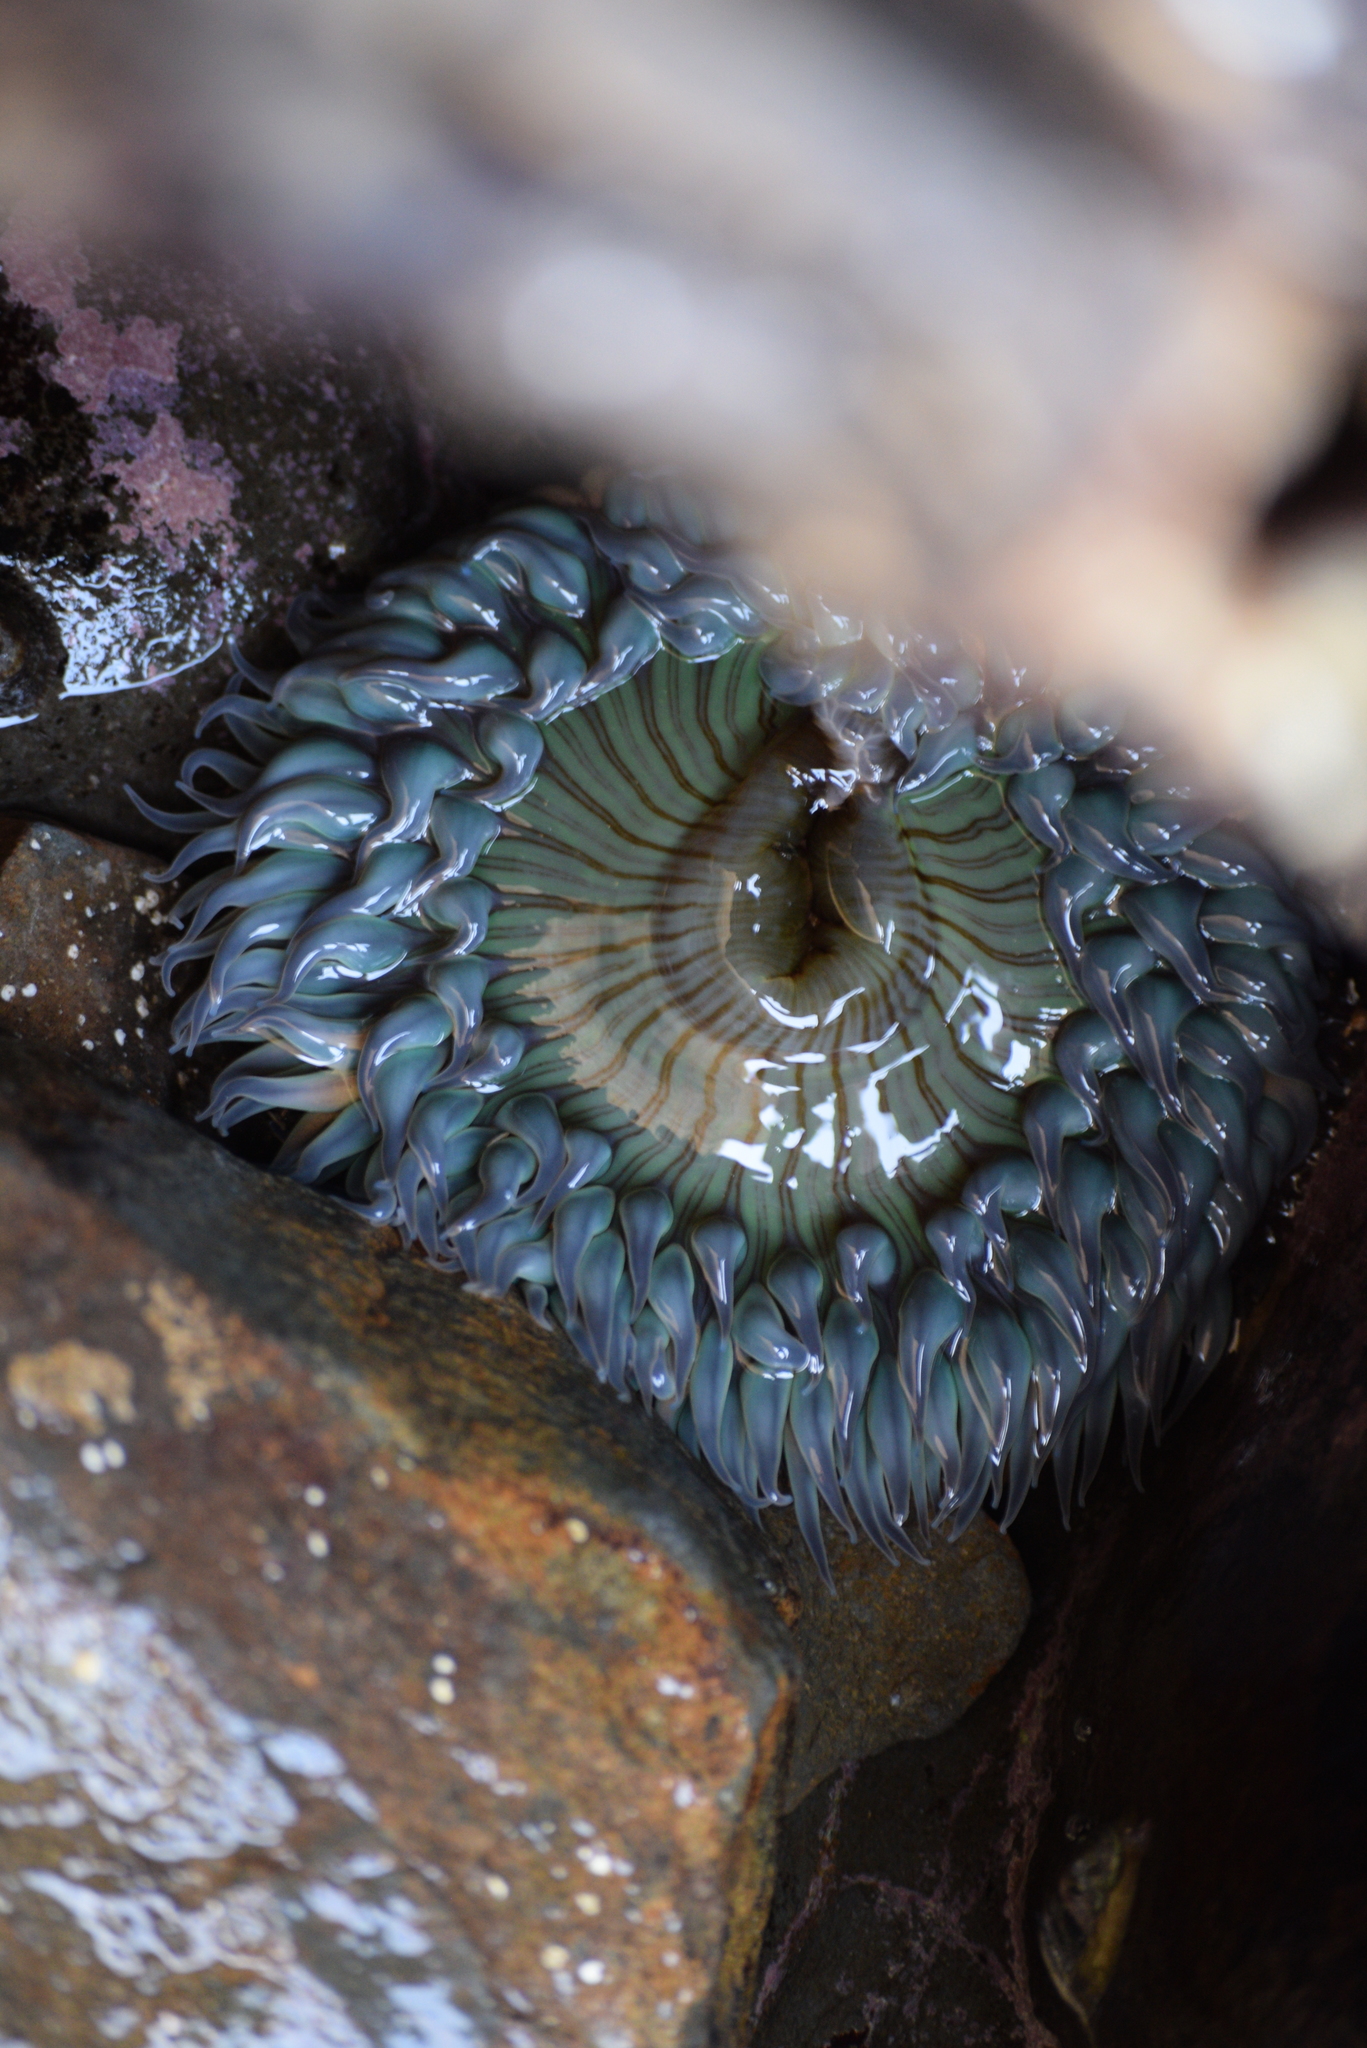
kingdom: Animalia
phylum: Cnidaria
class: Anthozoa
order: Actiniaria
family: Actiniidae
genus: Anthopleura
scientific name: Anthopleura sola
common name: Sun anemone
